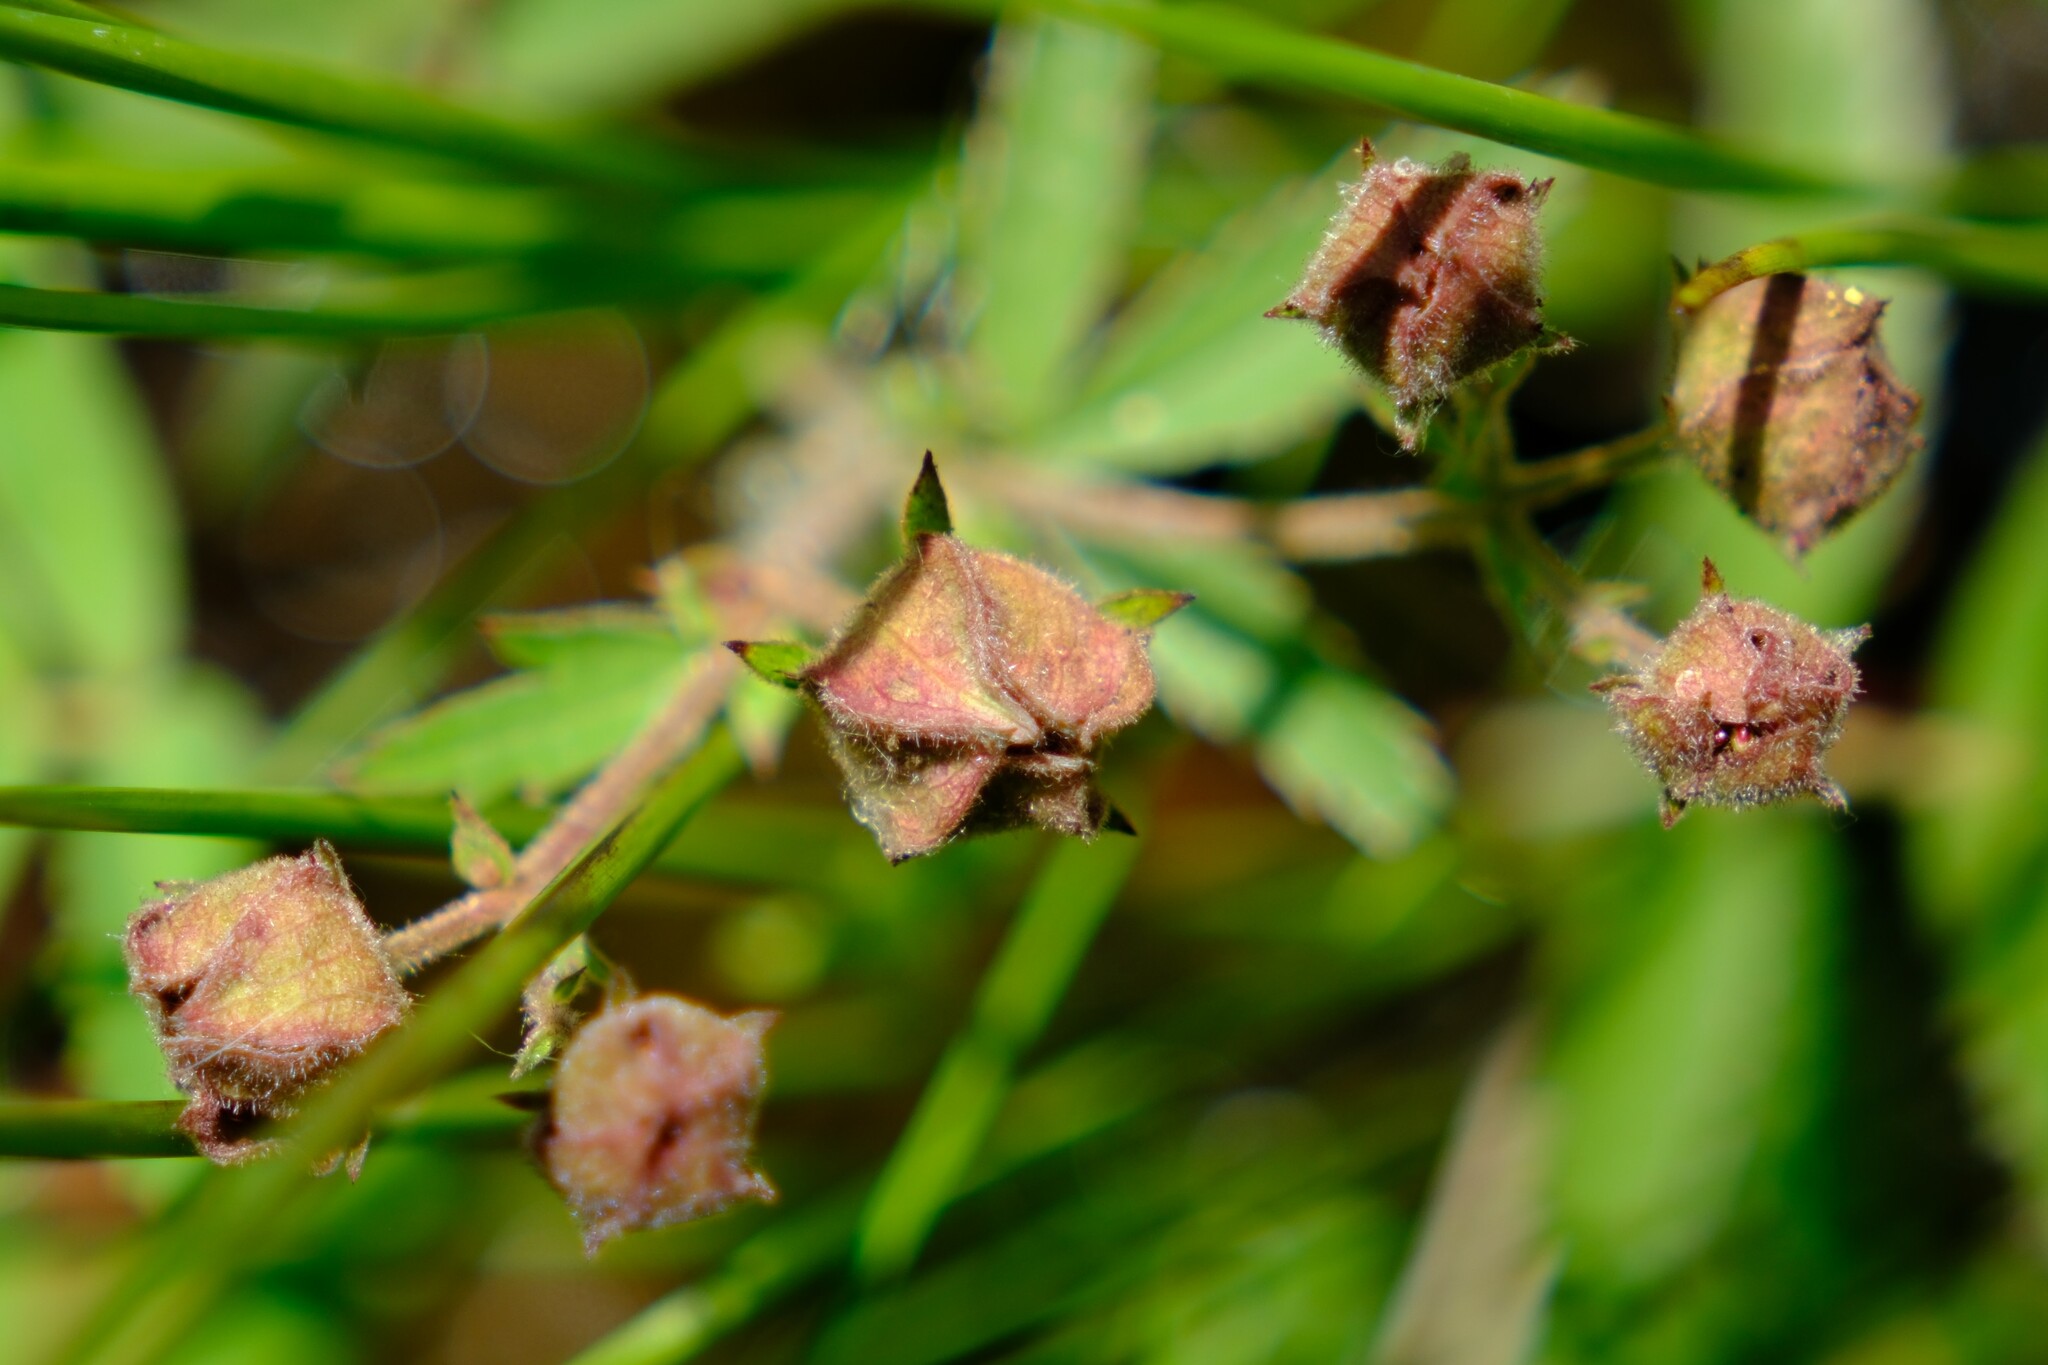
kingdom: Plantae
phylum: Tracheophyta
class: Magnoliopsida
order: Rosales
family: Rosaceae
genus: Comarum
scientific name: Comarum palustre
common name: Marsh cinquefoil
